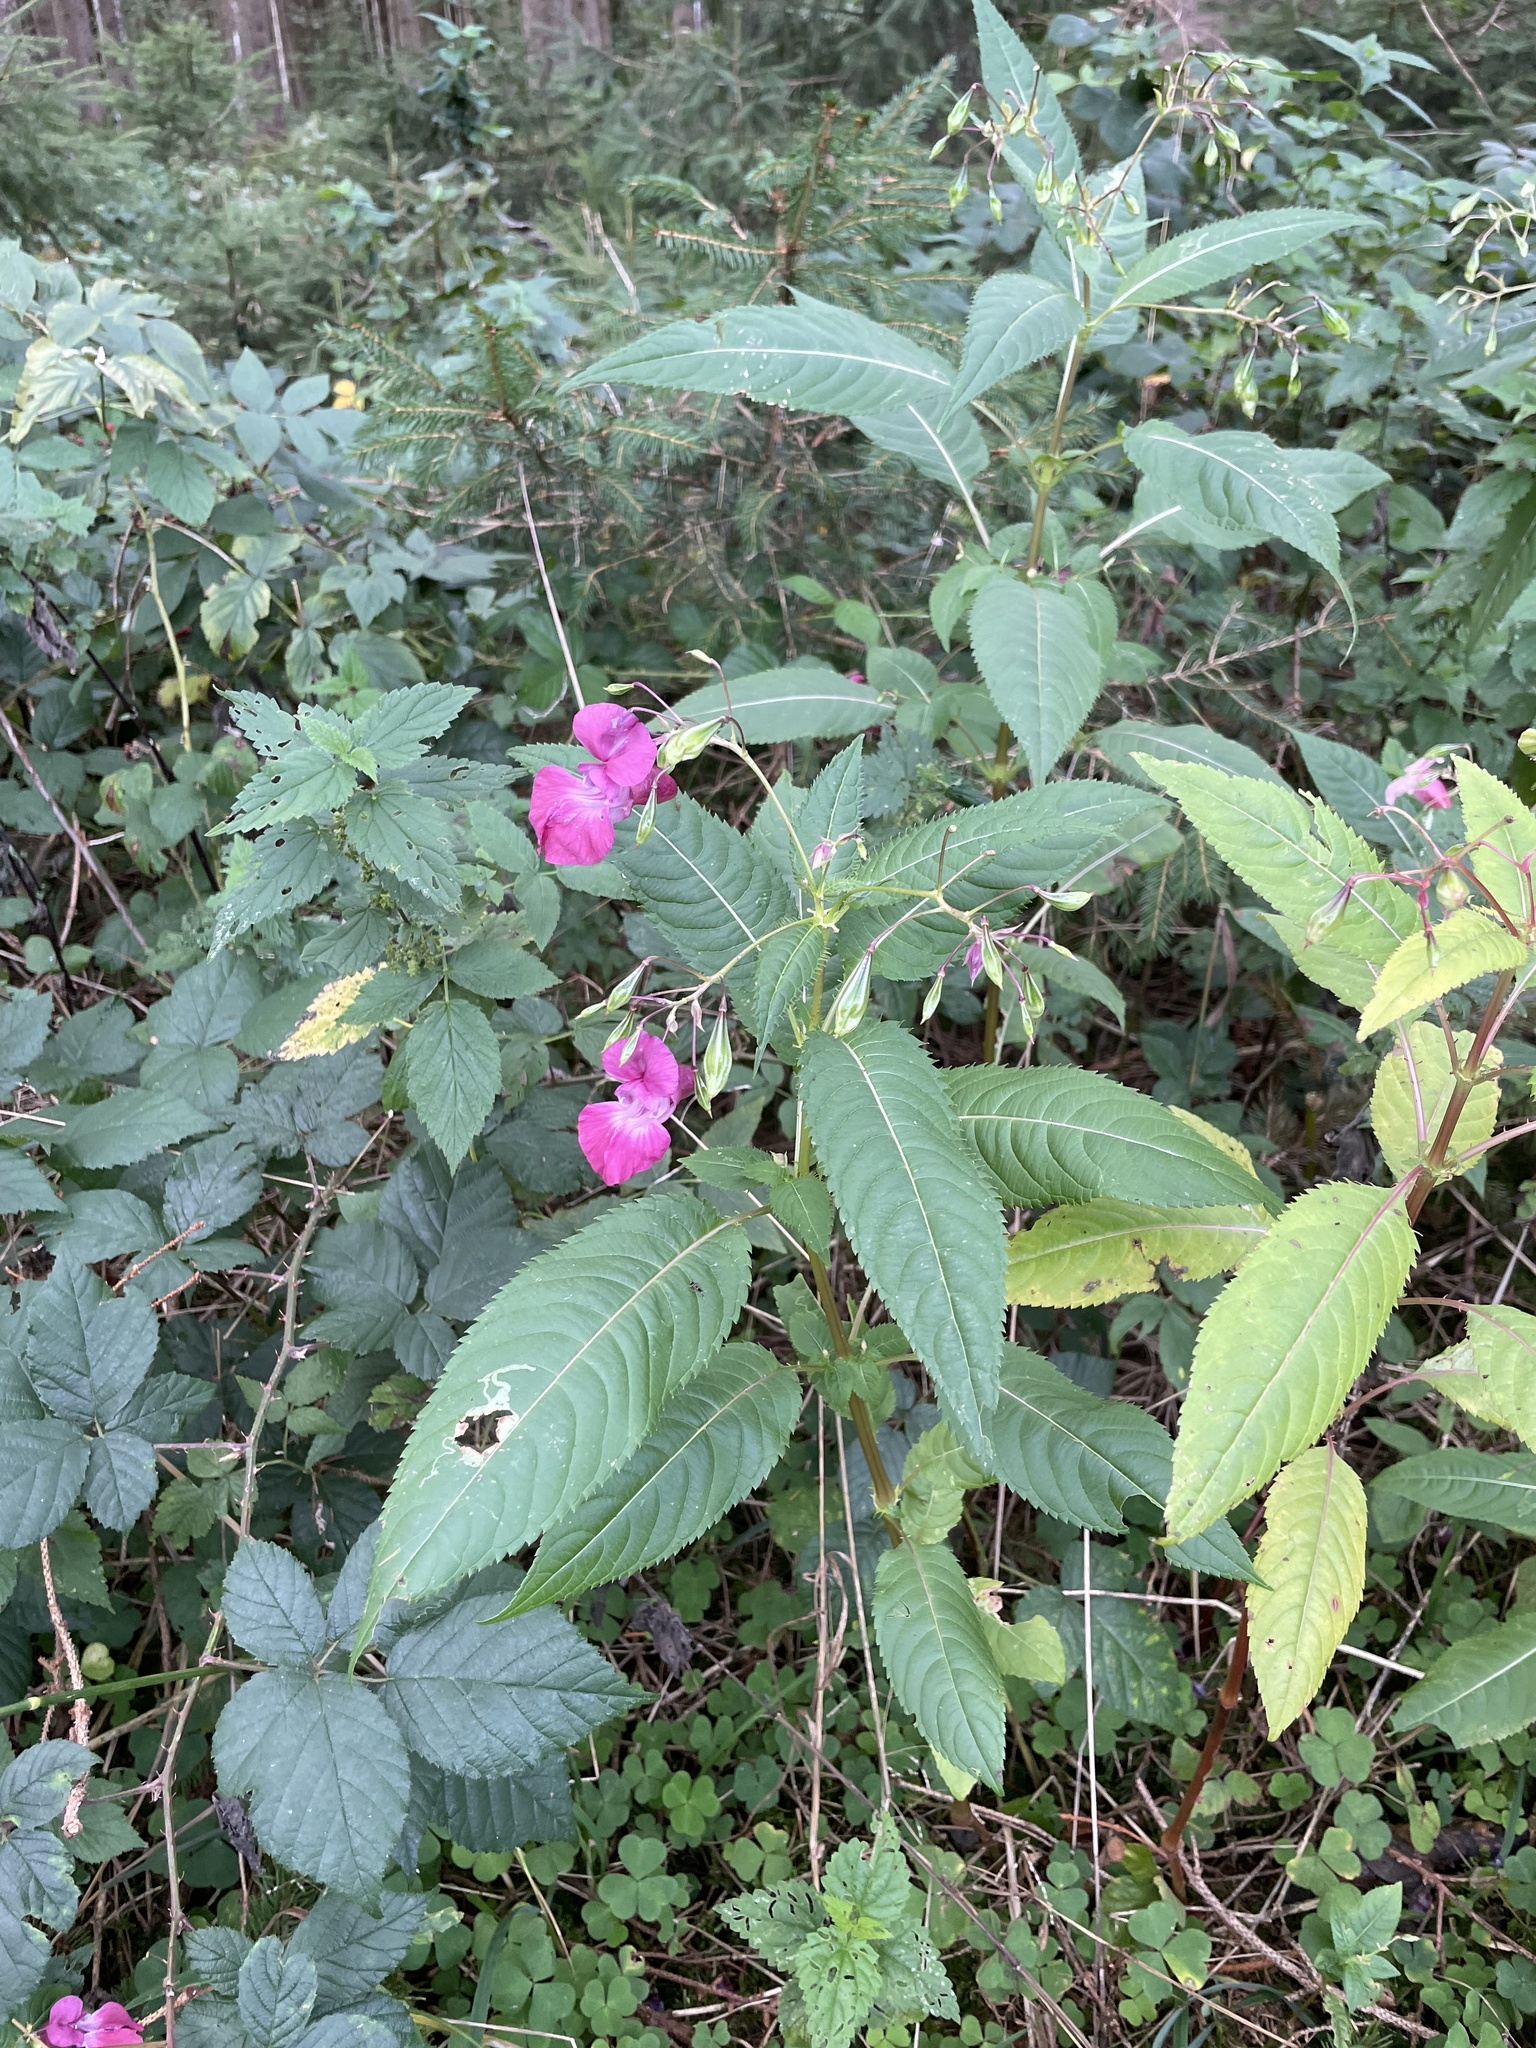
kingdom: Plantae
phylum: Tracheophyta
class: Magnoliopsida
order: Ericales
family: Balsaminaceae
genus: Impatiens
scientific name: Impatiens glandulifera
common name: Himalayan balsam
